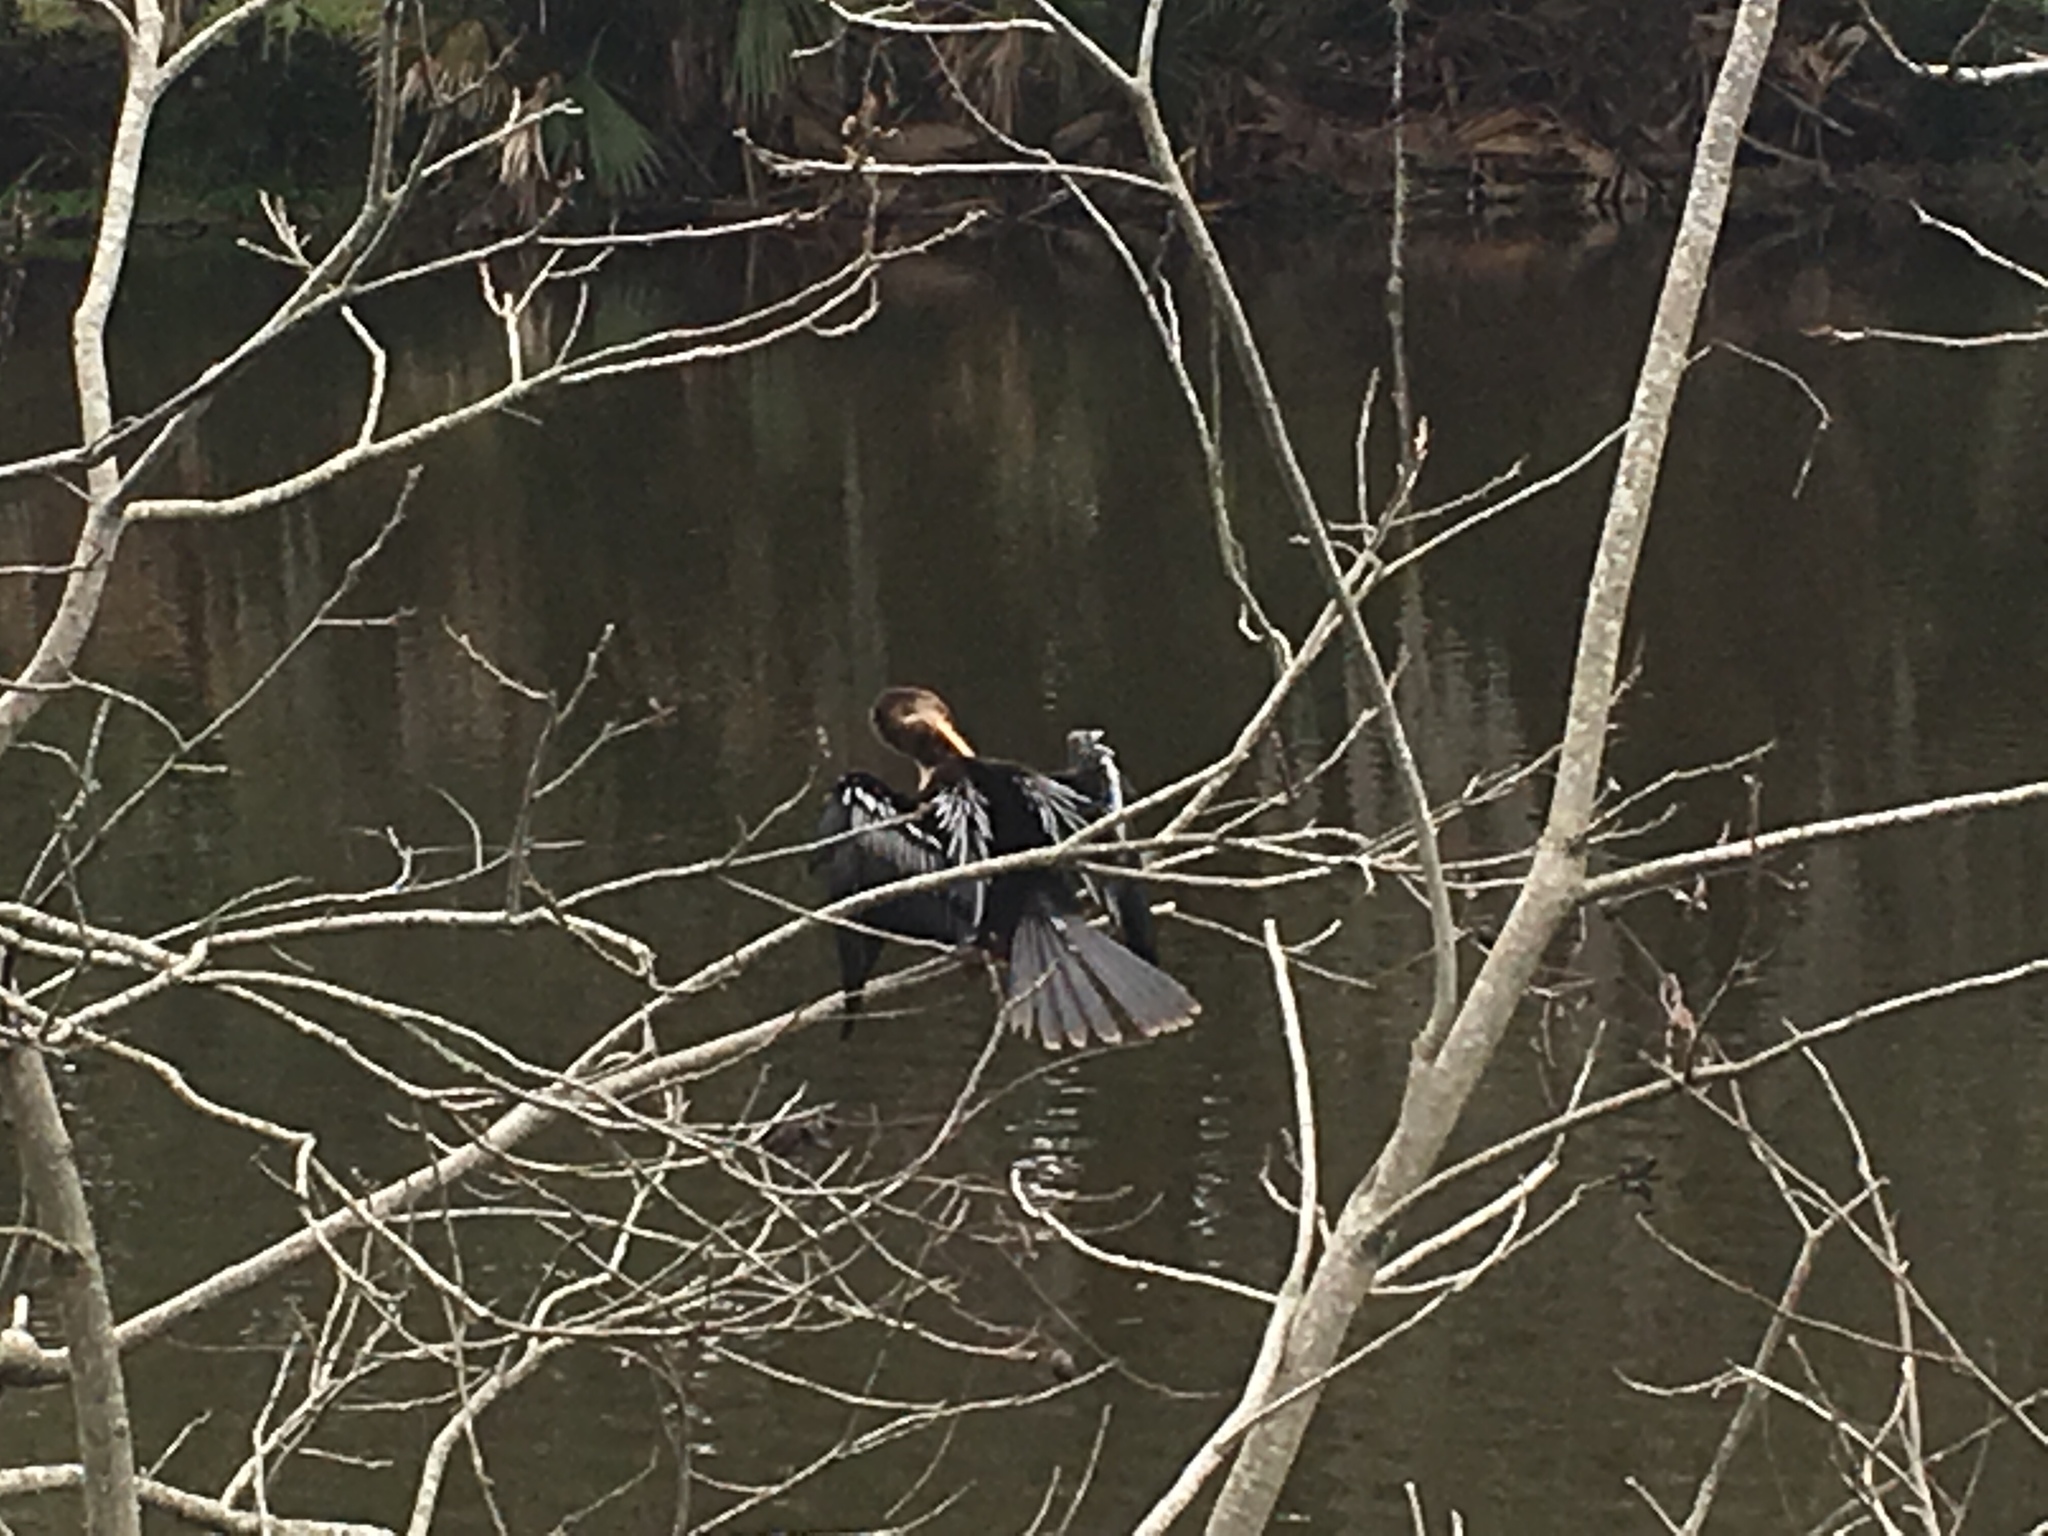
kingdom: Animalia
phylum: Chordata
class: Aves
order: Suliformes
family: Anhingidae
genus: Anhinga
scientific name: Anhinga anhinga
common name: Anhinga
